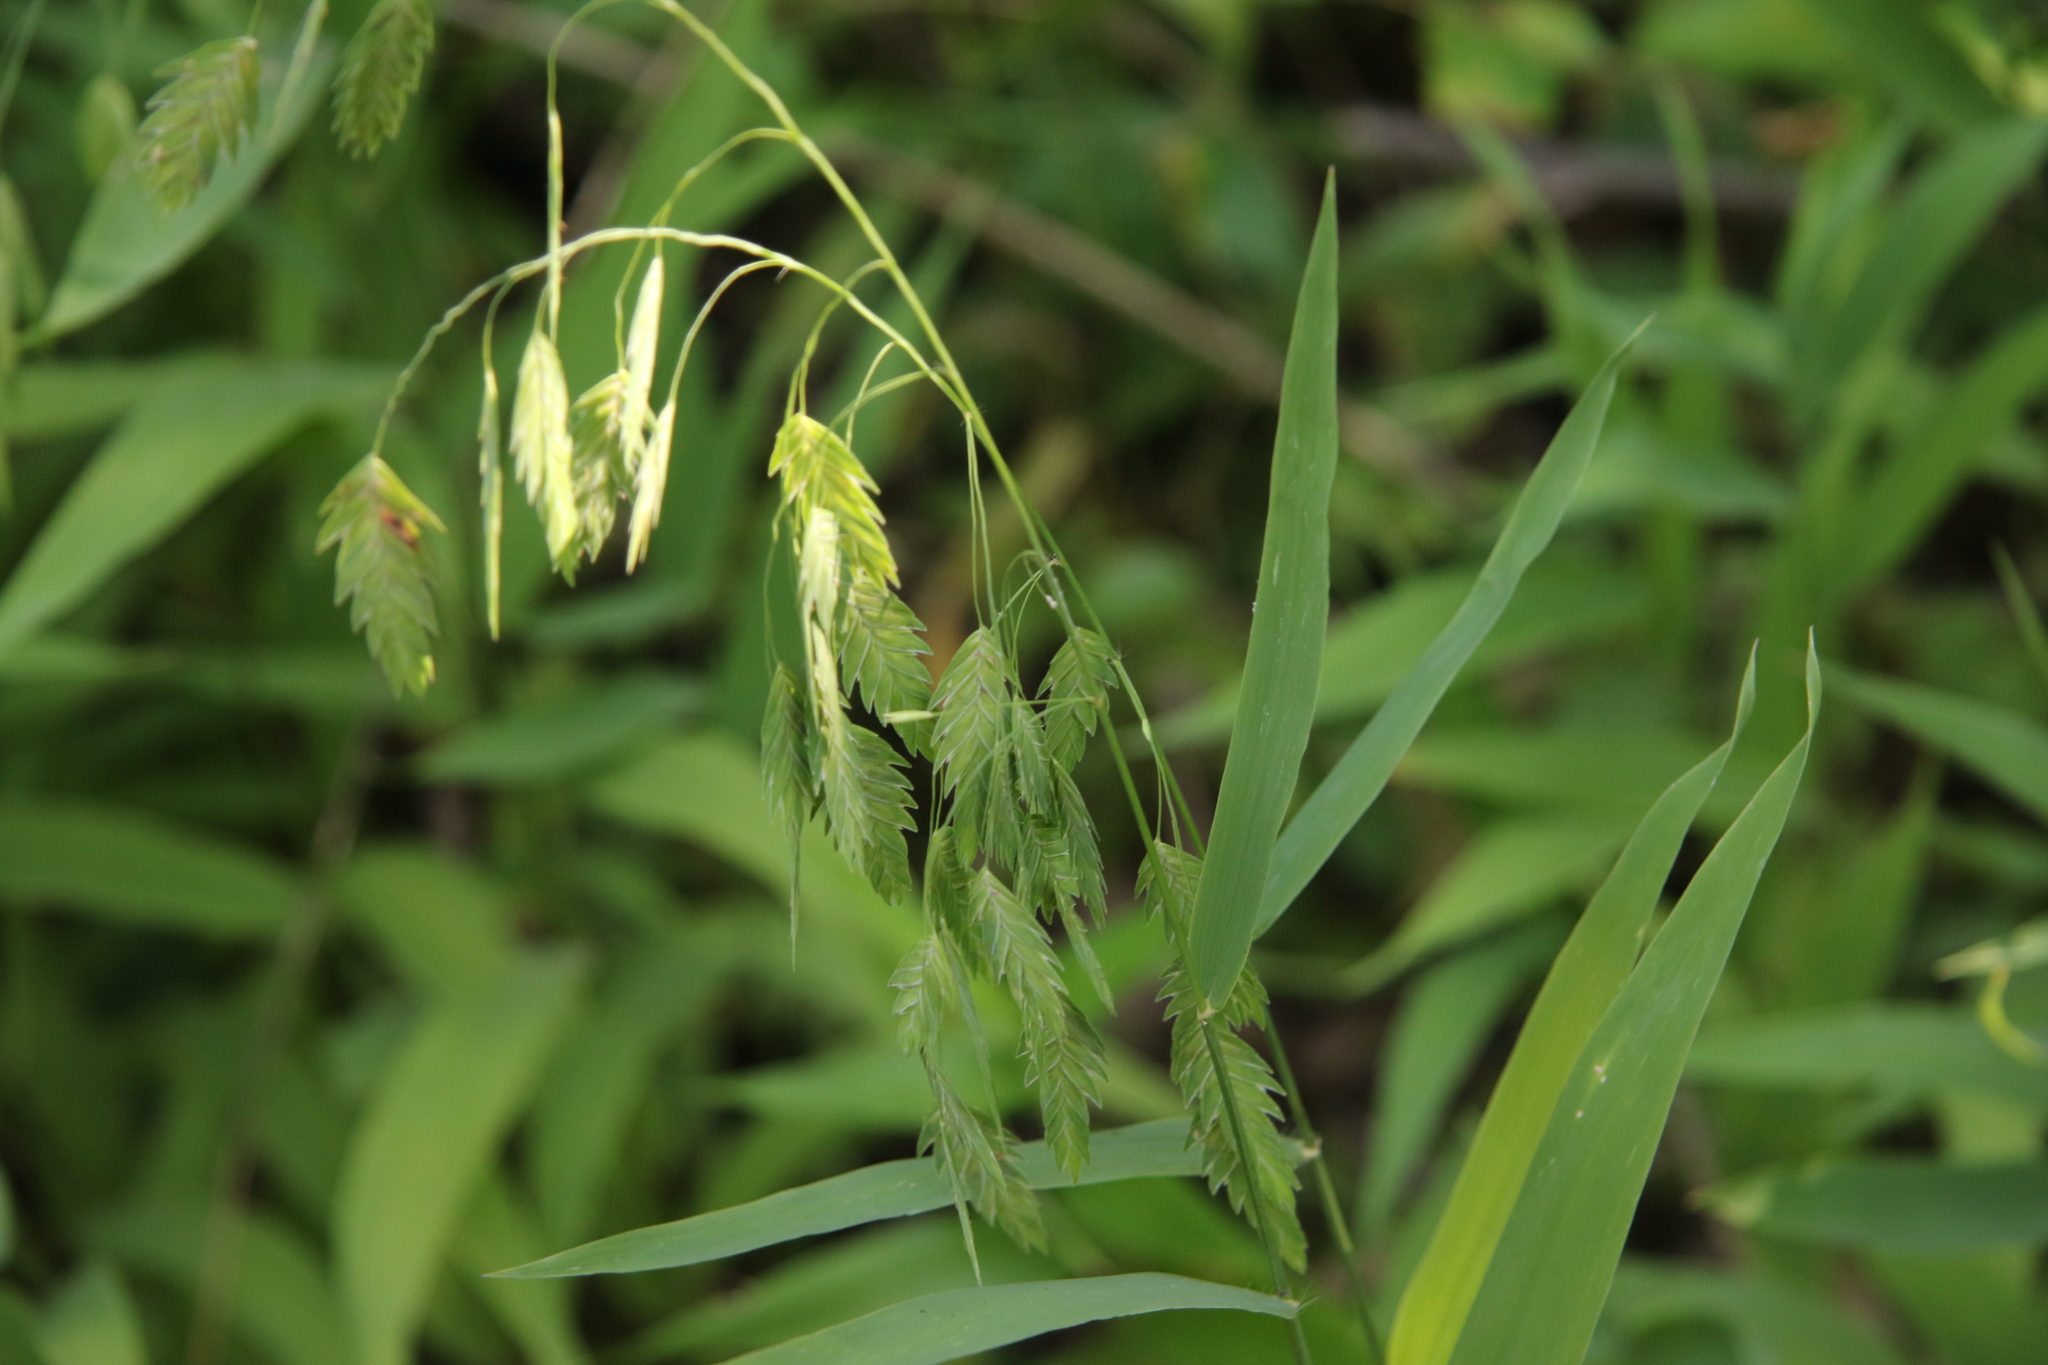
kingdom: Plantae
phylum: Tracheophyta
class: Liliopsida
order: Poales
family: Poaceae
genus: Chasmanthium
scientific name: Chasmanthium latifolium
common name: Broad-leaved chasmanthium
